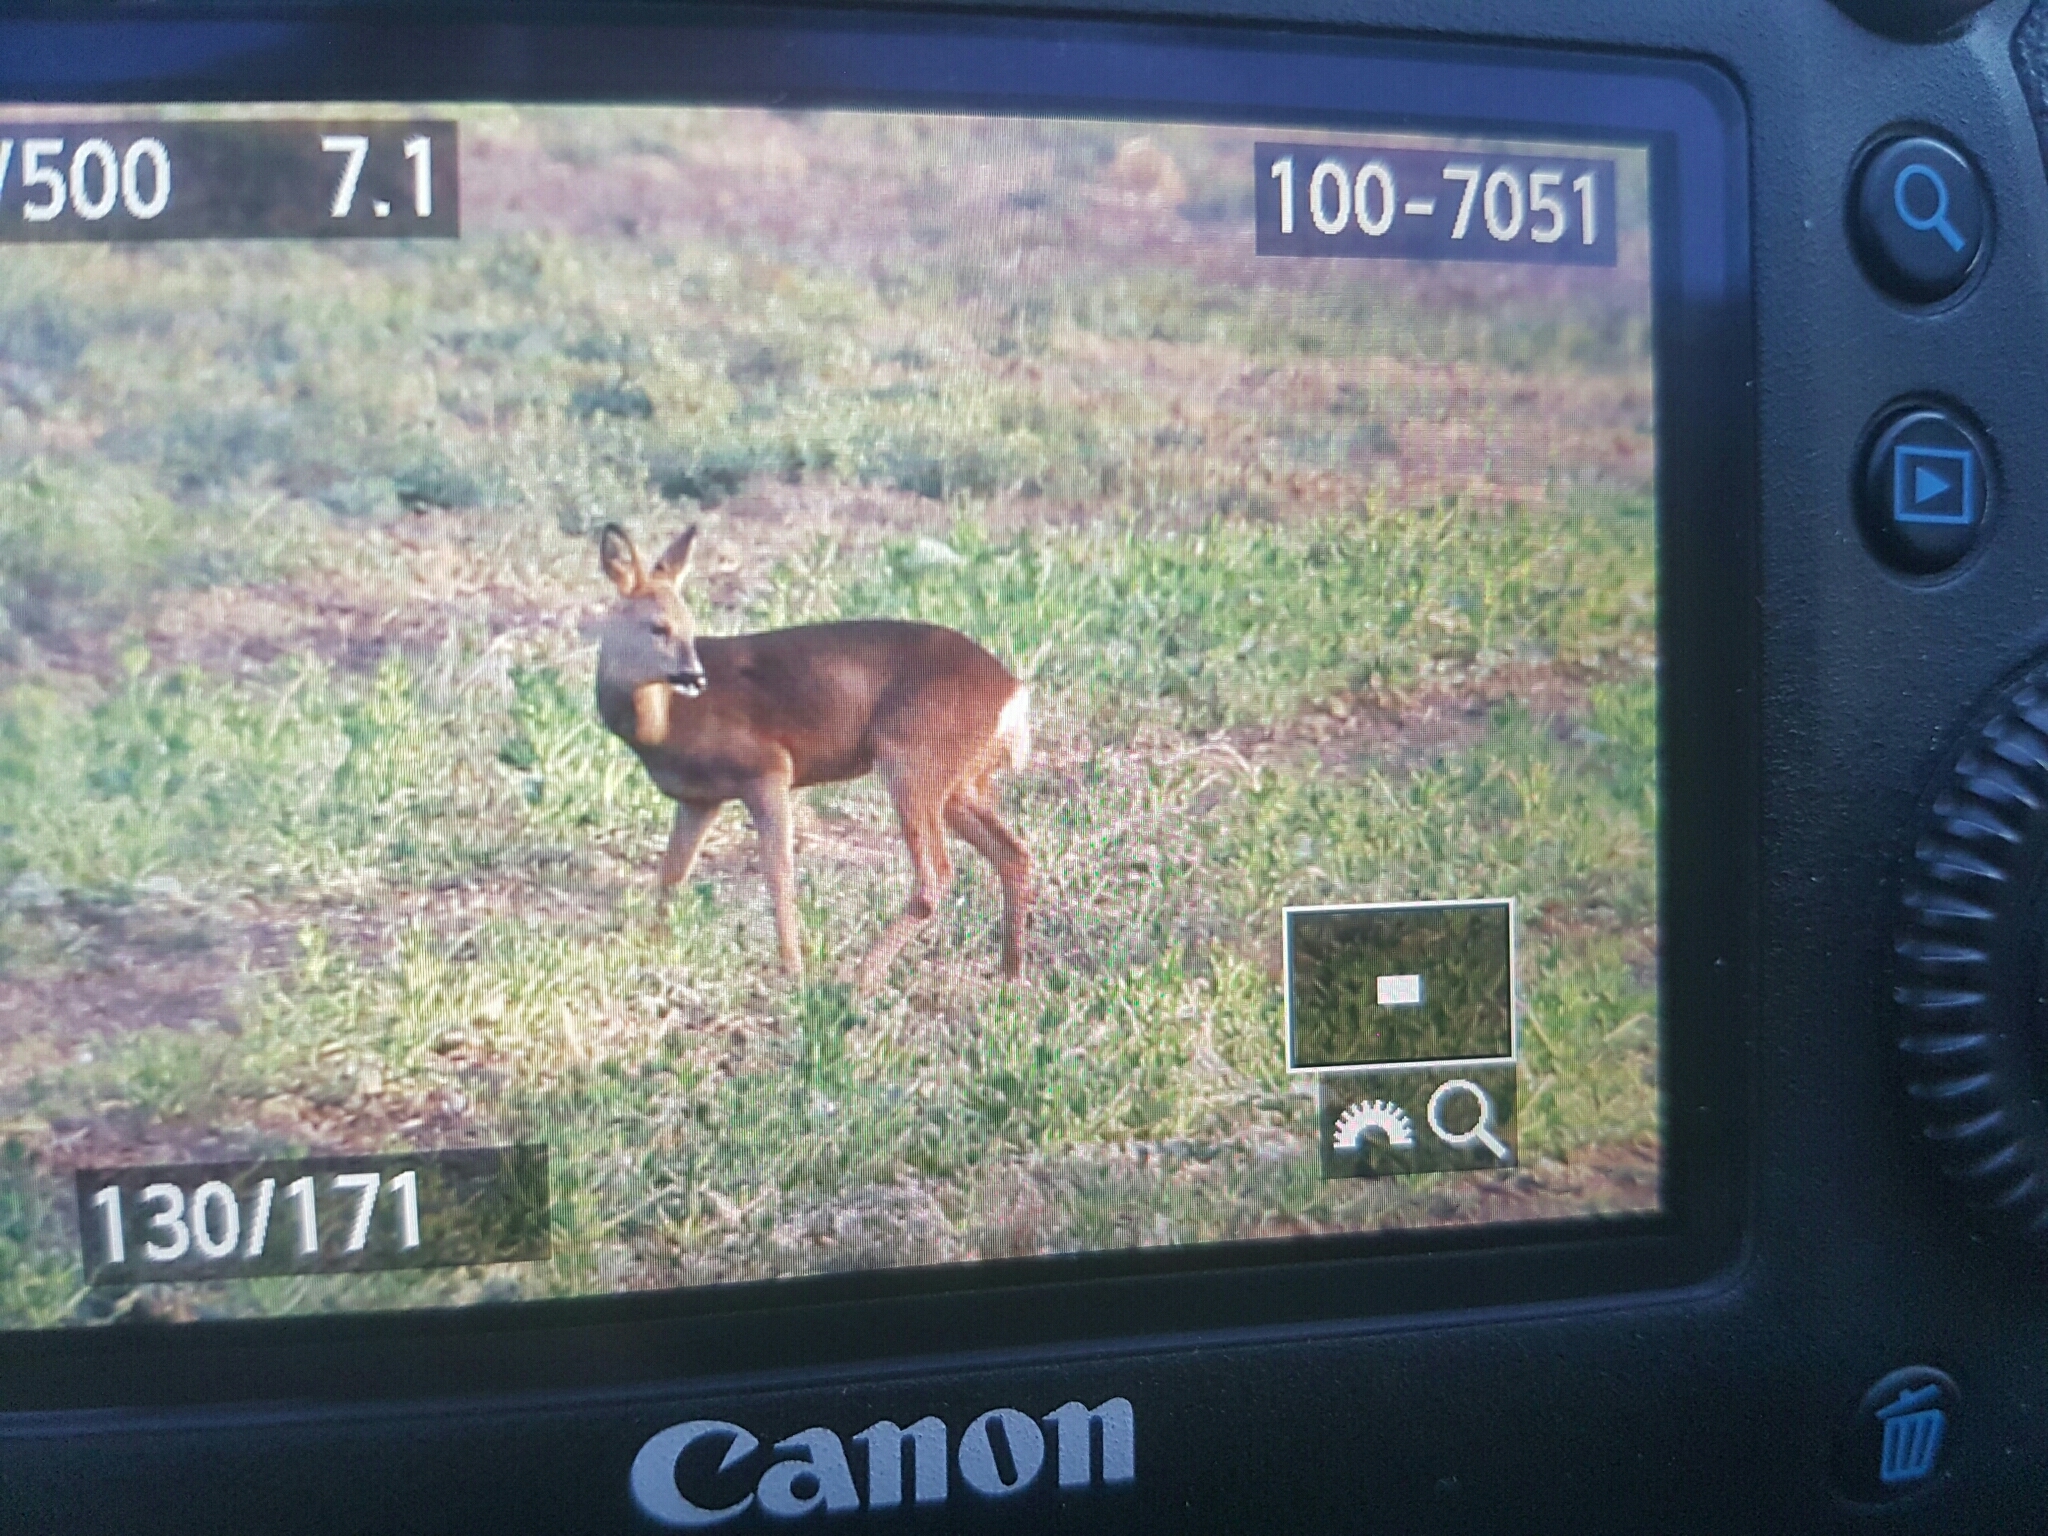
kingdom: Animalia
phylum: Chordata
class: Mammalia
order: Artiodactyla
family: Cervidae
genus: Capreolus
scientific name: Capreolus capreolus
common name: Western roe deer
